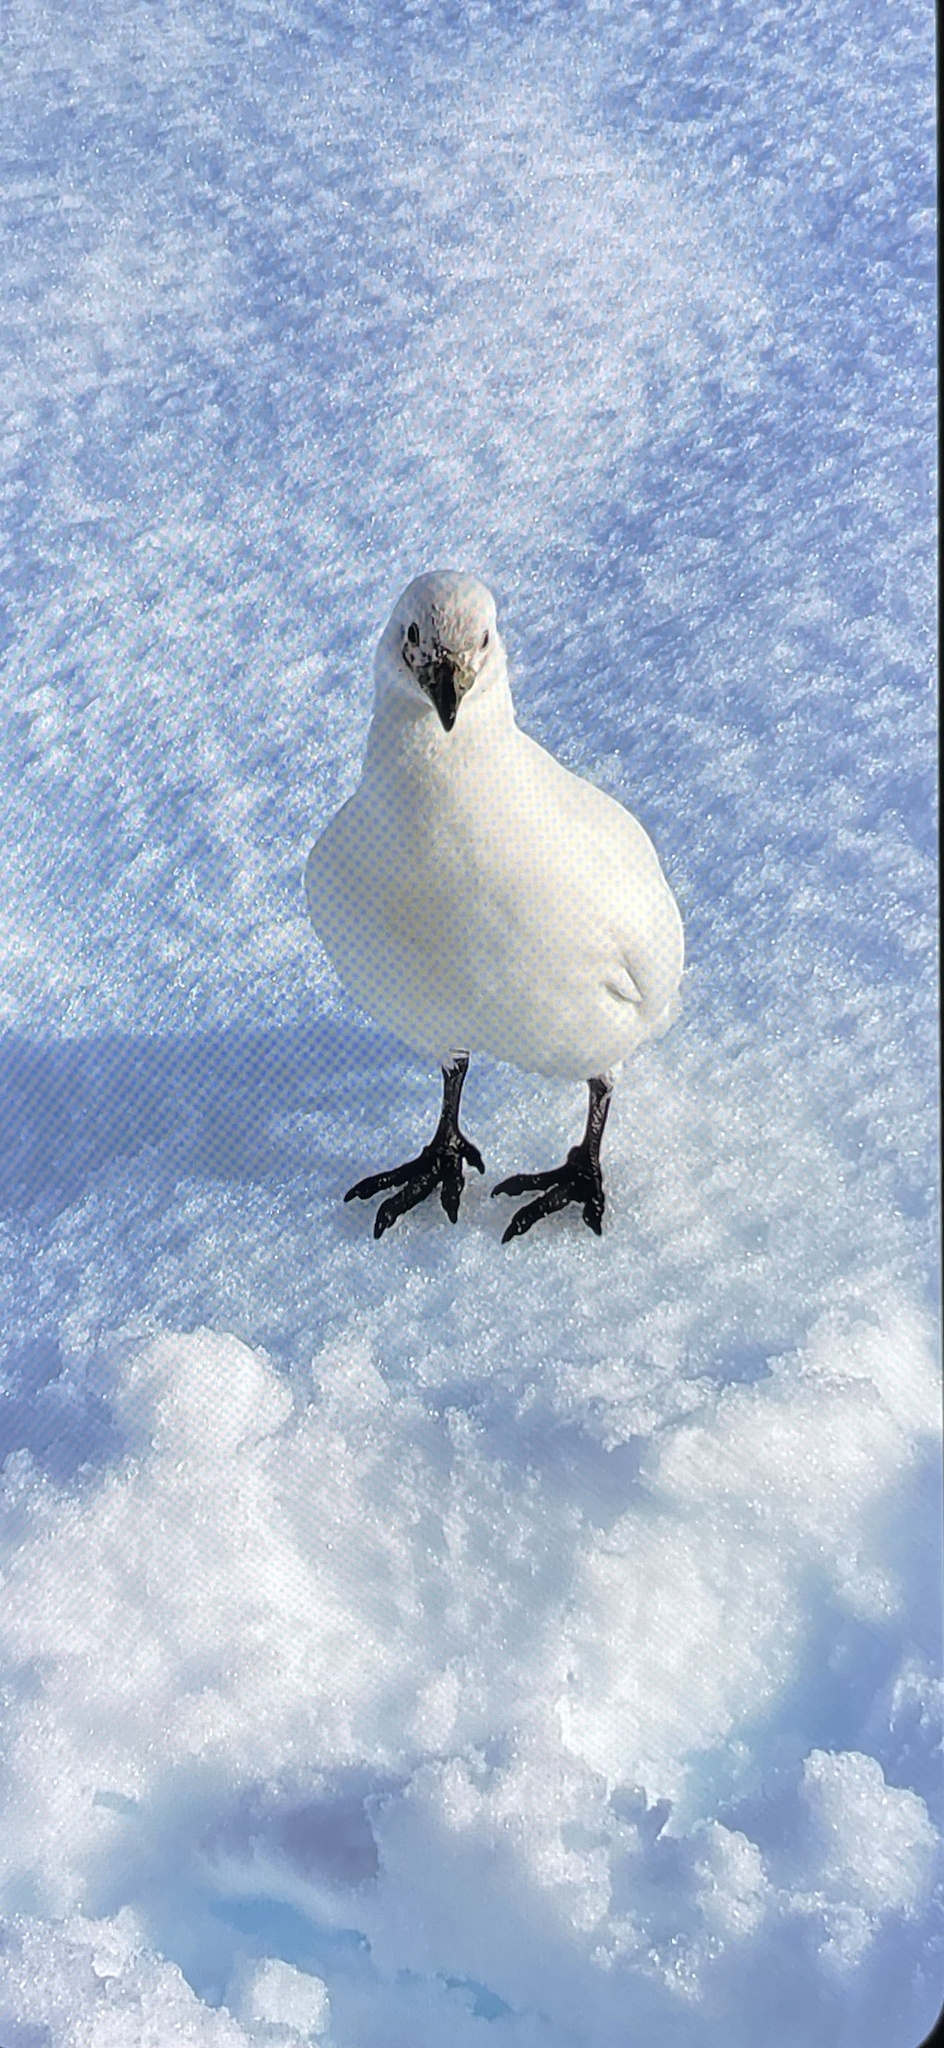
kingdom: Animalia
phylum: Chordata
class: Aves
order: Charadriiformes
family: Chionidae
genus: Chionis
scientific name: Chionis albus
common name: Snowy sheathbill
